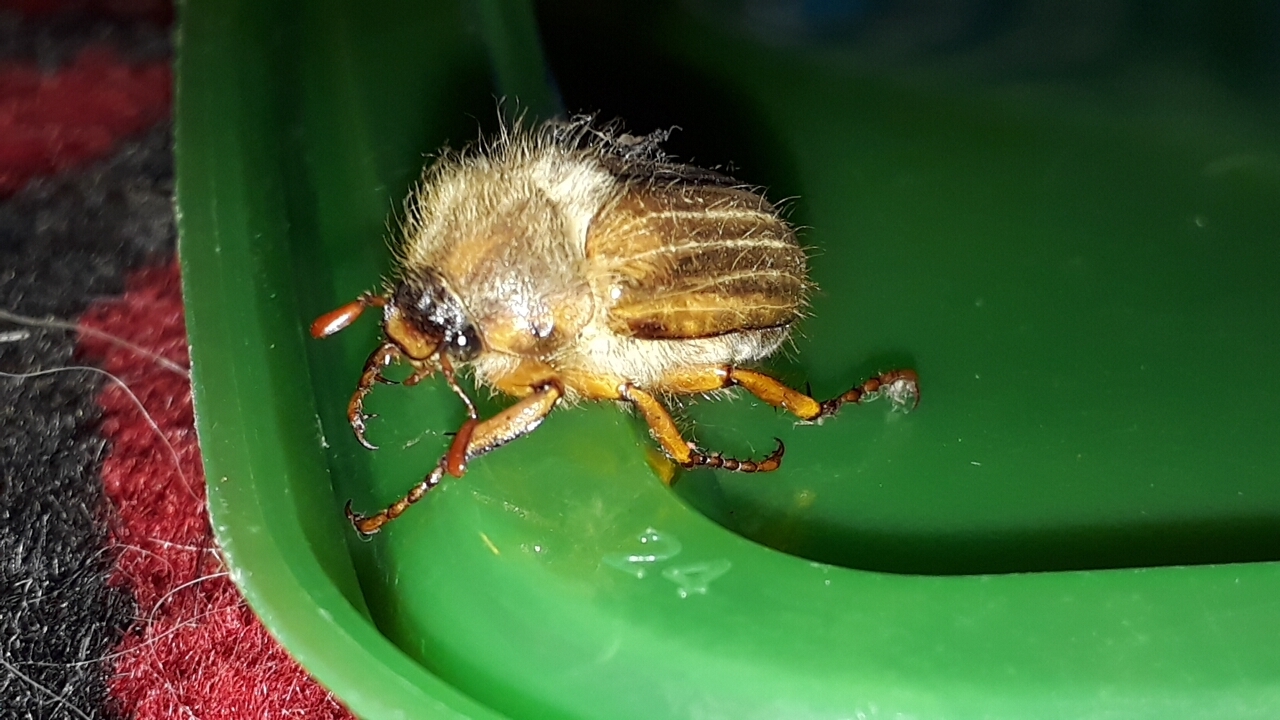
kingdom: Animalia
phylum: Arthropoda
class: Insecta
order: Coleoptera
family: Scarabaeidae
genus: Amphimallon
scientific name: Amphimallon solstitiale
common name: Summer chafer
